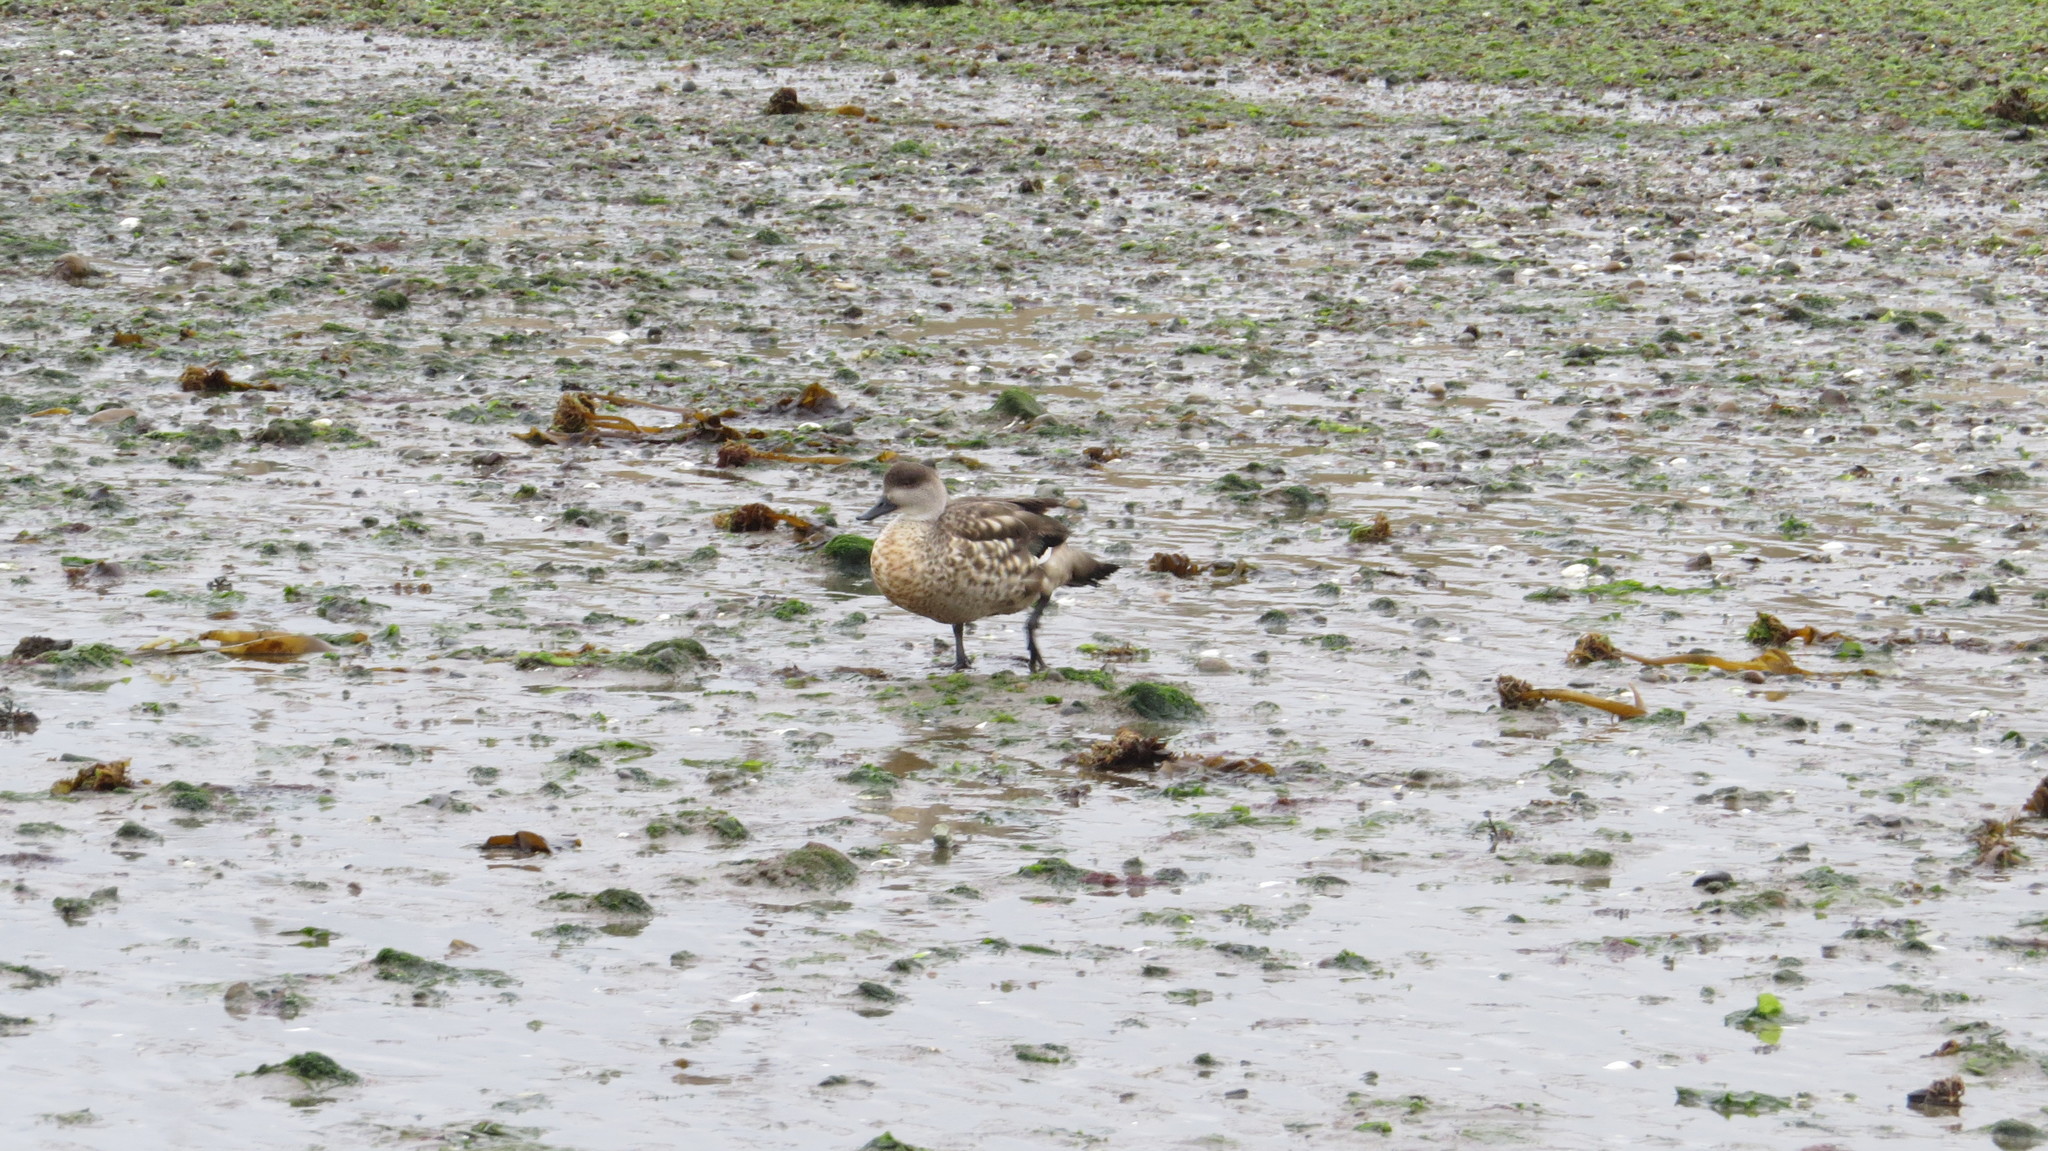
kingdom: Animalia
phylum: Chordata
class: Aves
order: Anseriformes
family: Anatidae
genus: Lophonetta
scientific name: Lophonetta specularioides
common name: Crested duck
